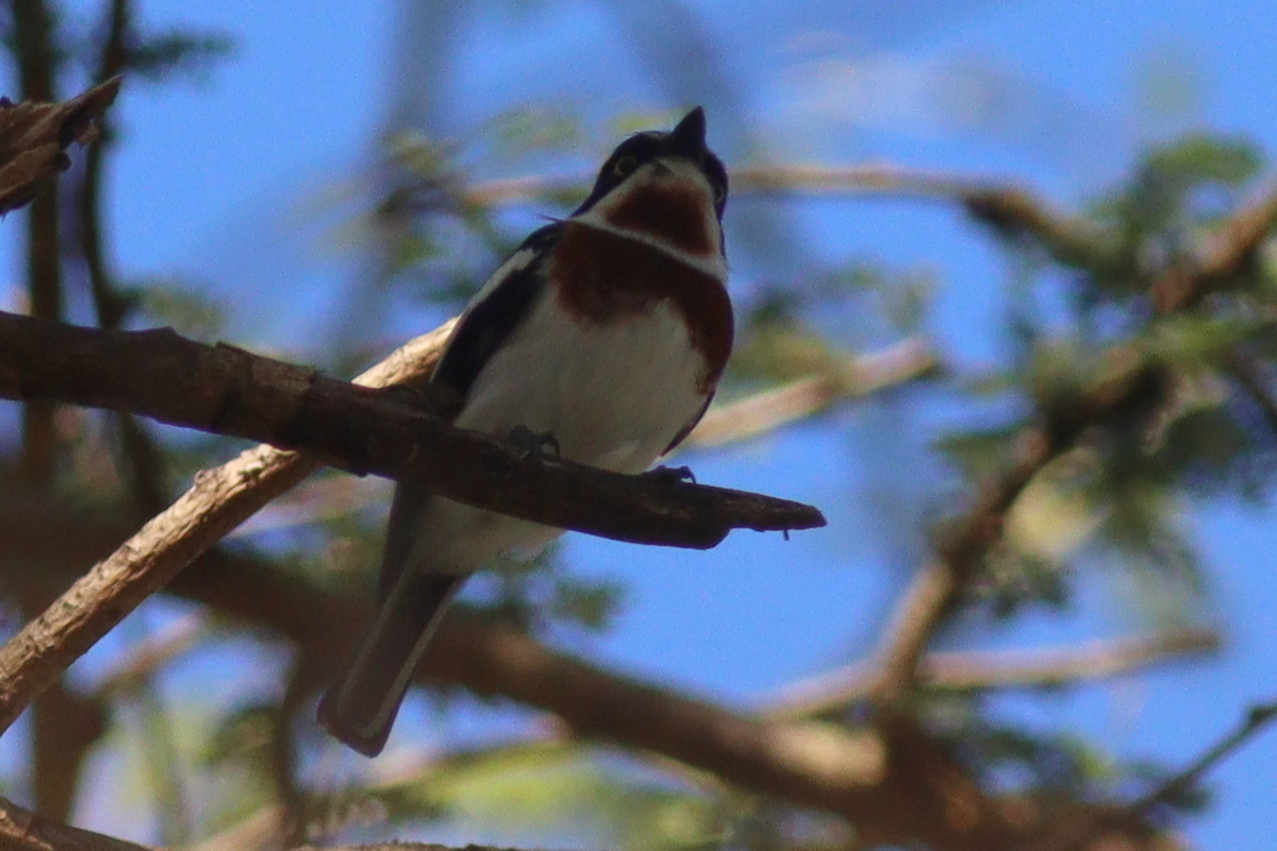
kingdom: Animalia
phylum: Chordata
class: Aves
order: Passeriformes
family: Platysteiridae
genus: Batis
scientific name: Batis molitor
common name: Chinspot batis
